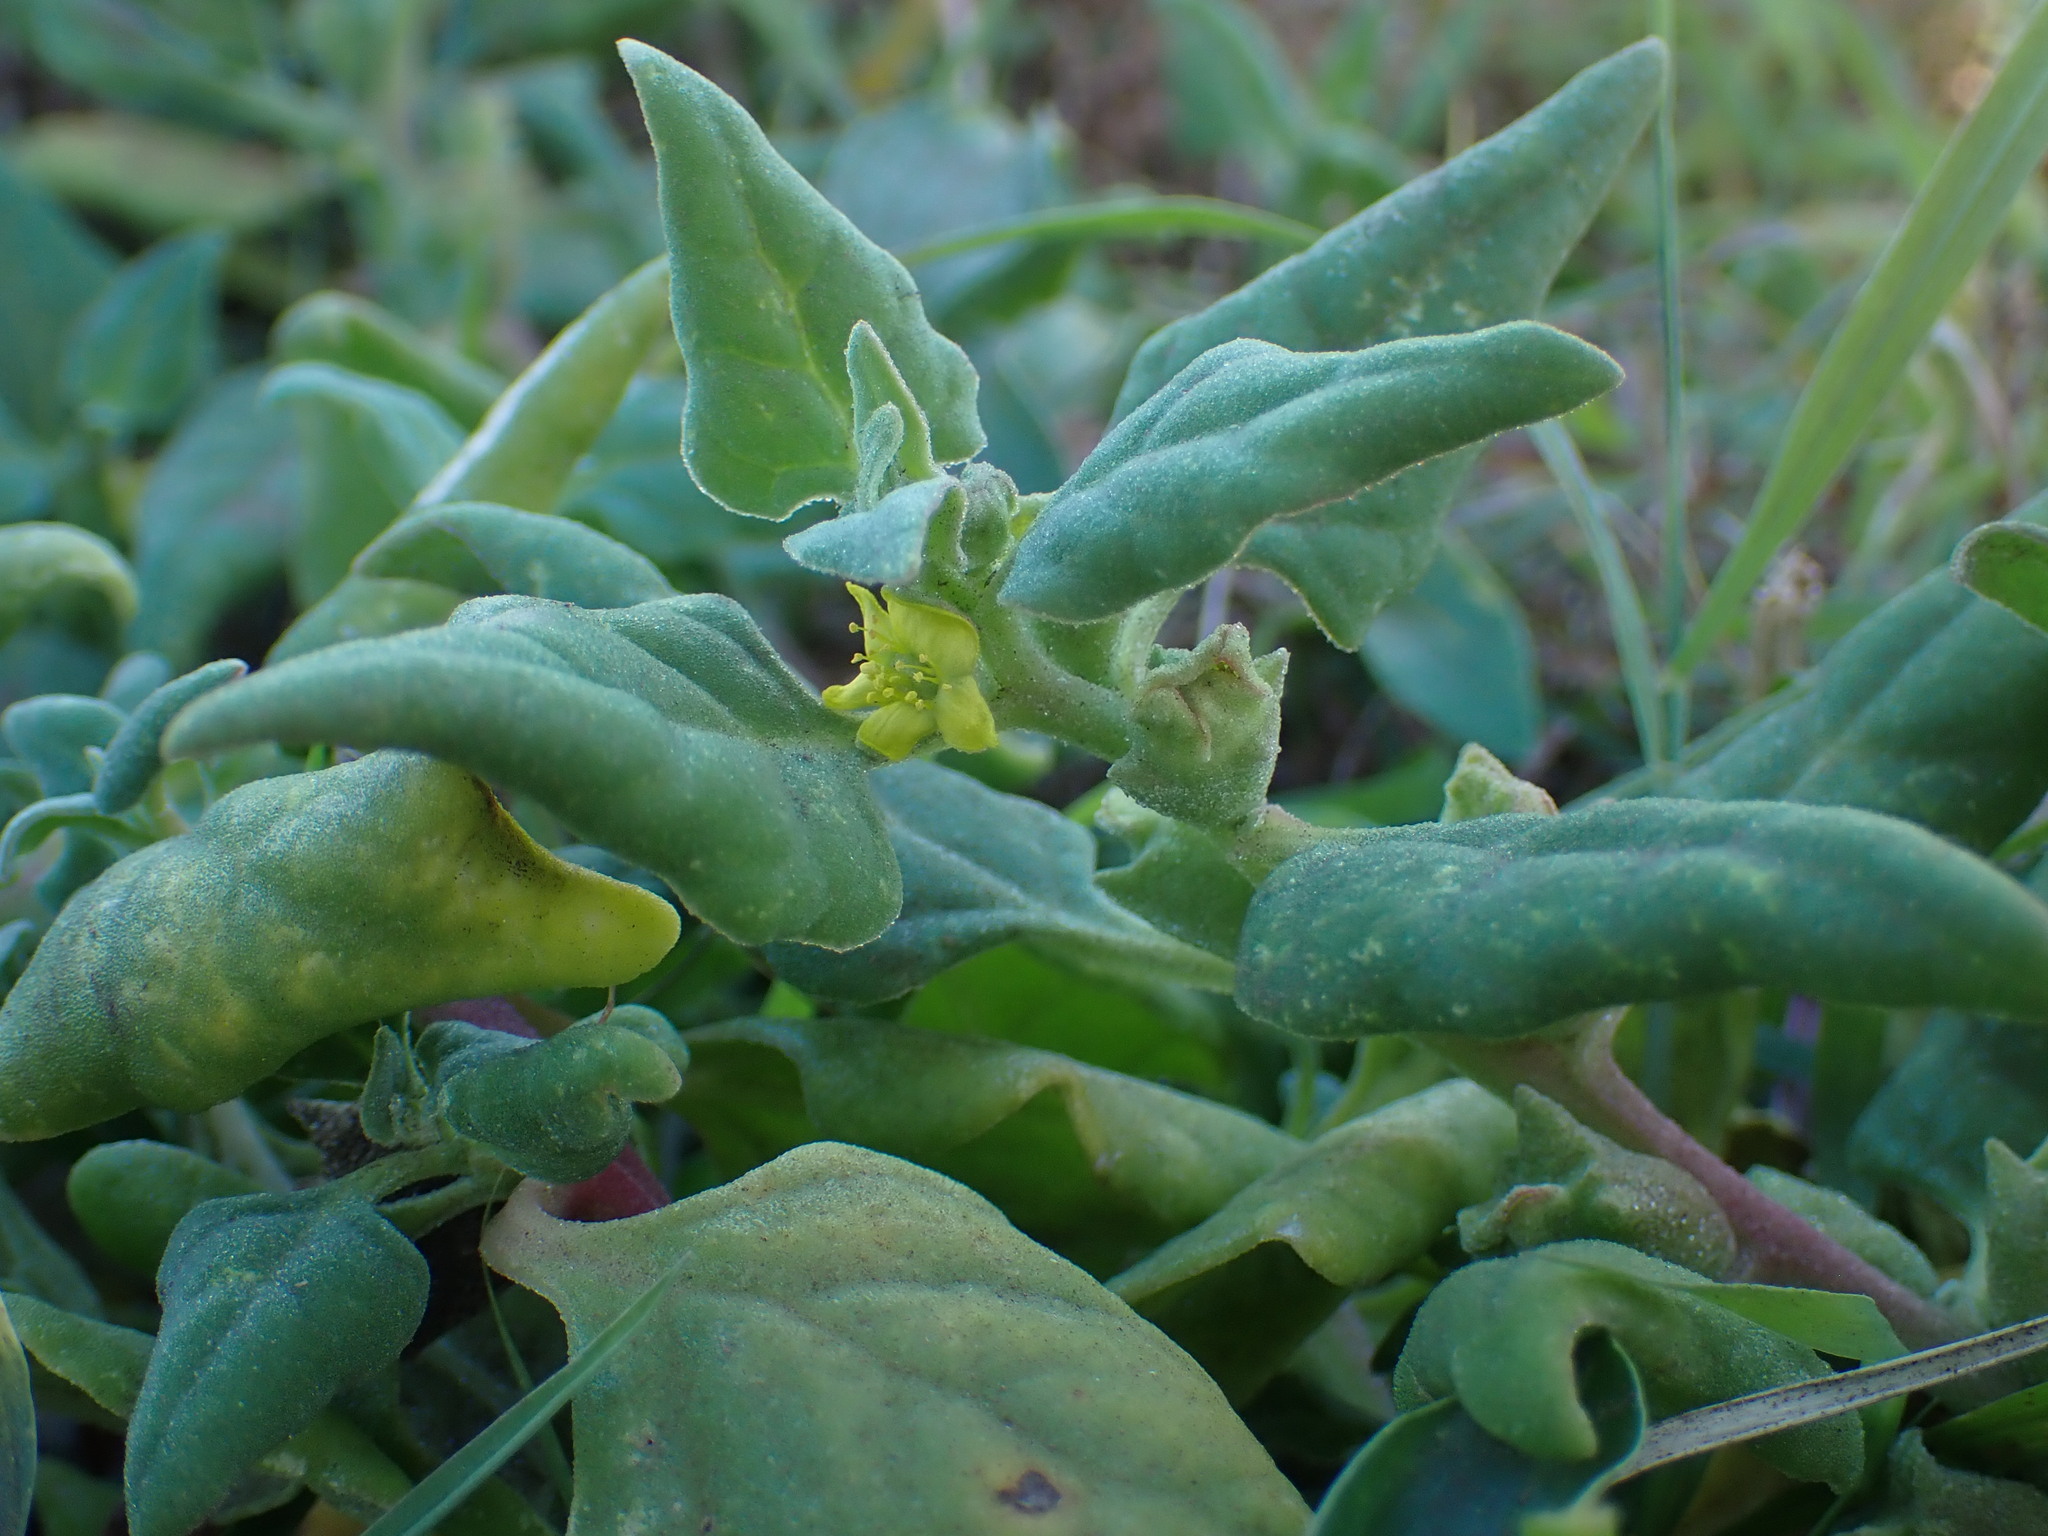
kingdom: Plantae
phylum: Tracheophyta
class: Magnoliopsida
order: Caryophyllales
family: Aizoaceae
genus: Tetragonia
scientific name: Tetragonia tetragonoides
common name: New zealand-spinach
